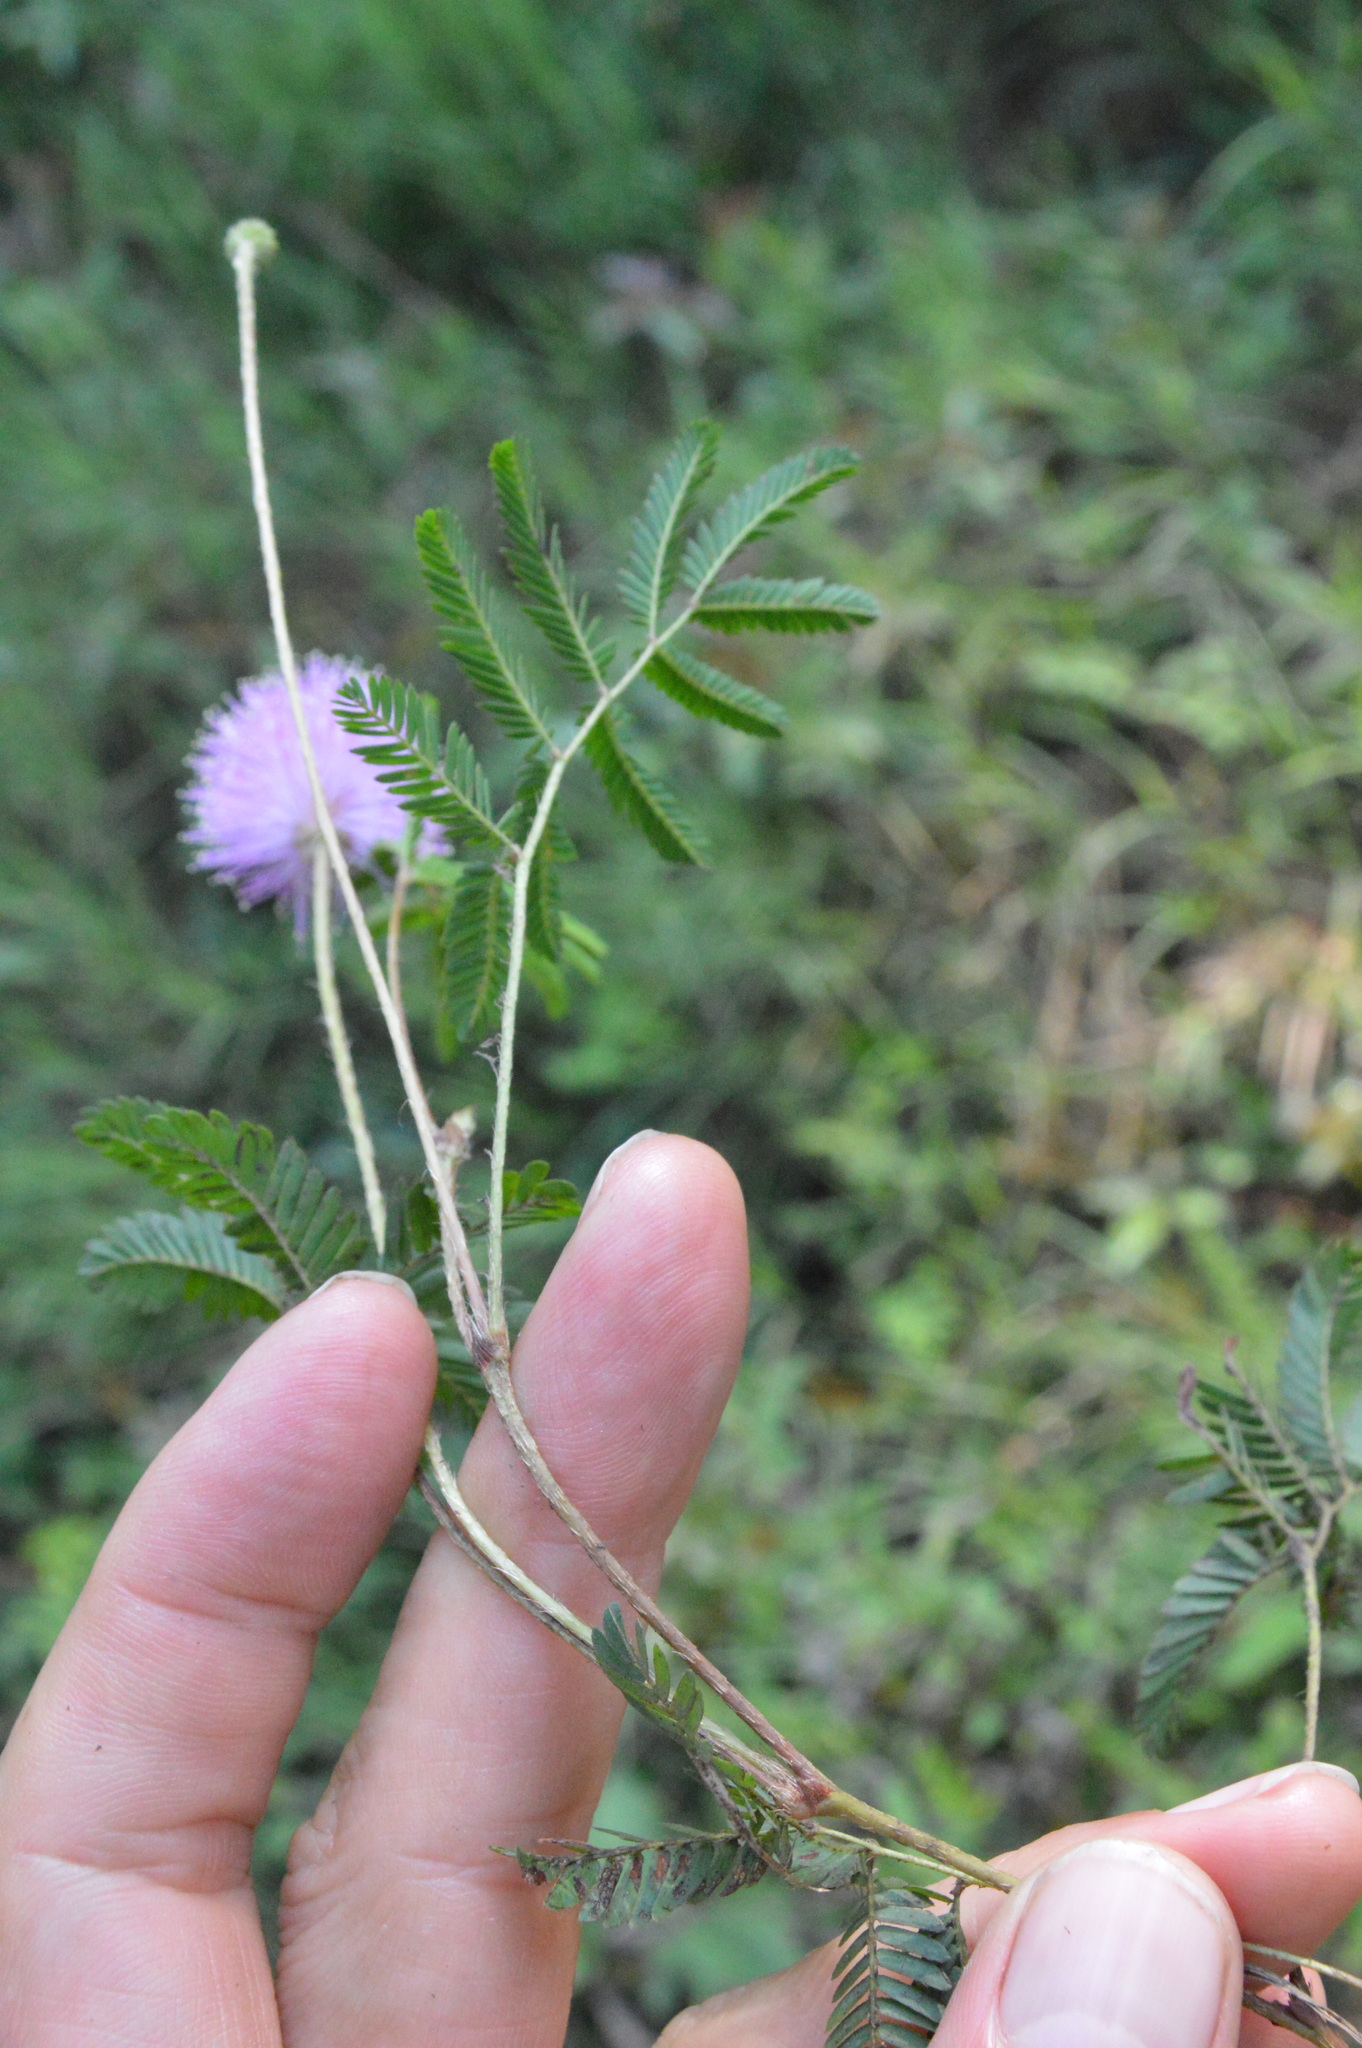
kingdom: Plantae
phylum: Tracheophyta
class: Magnoliopsida
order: Fabales
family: Fabaceae
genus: Mimosa
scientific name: Mimosa strigillosa
